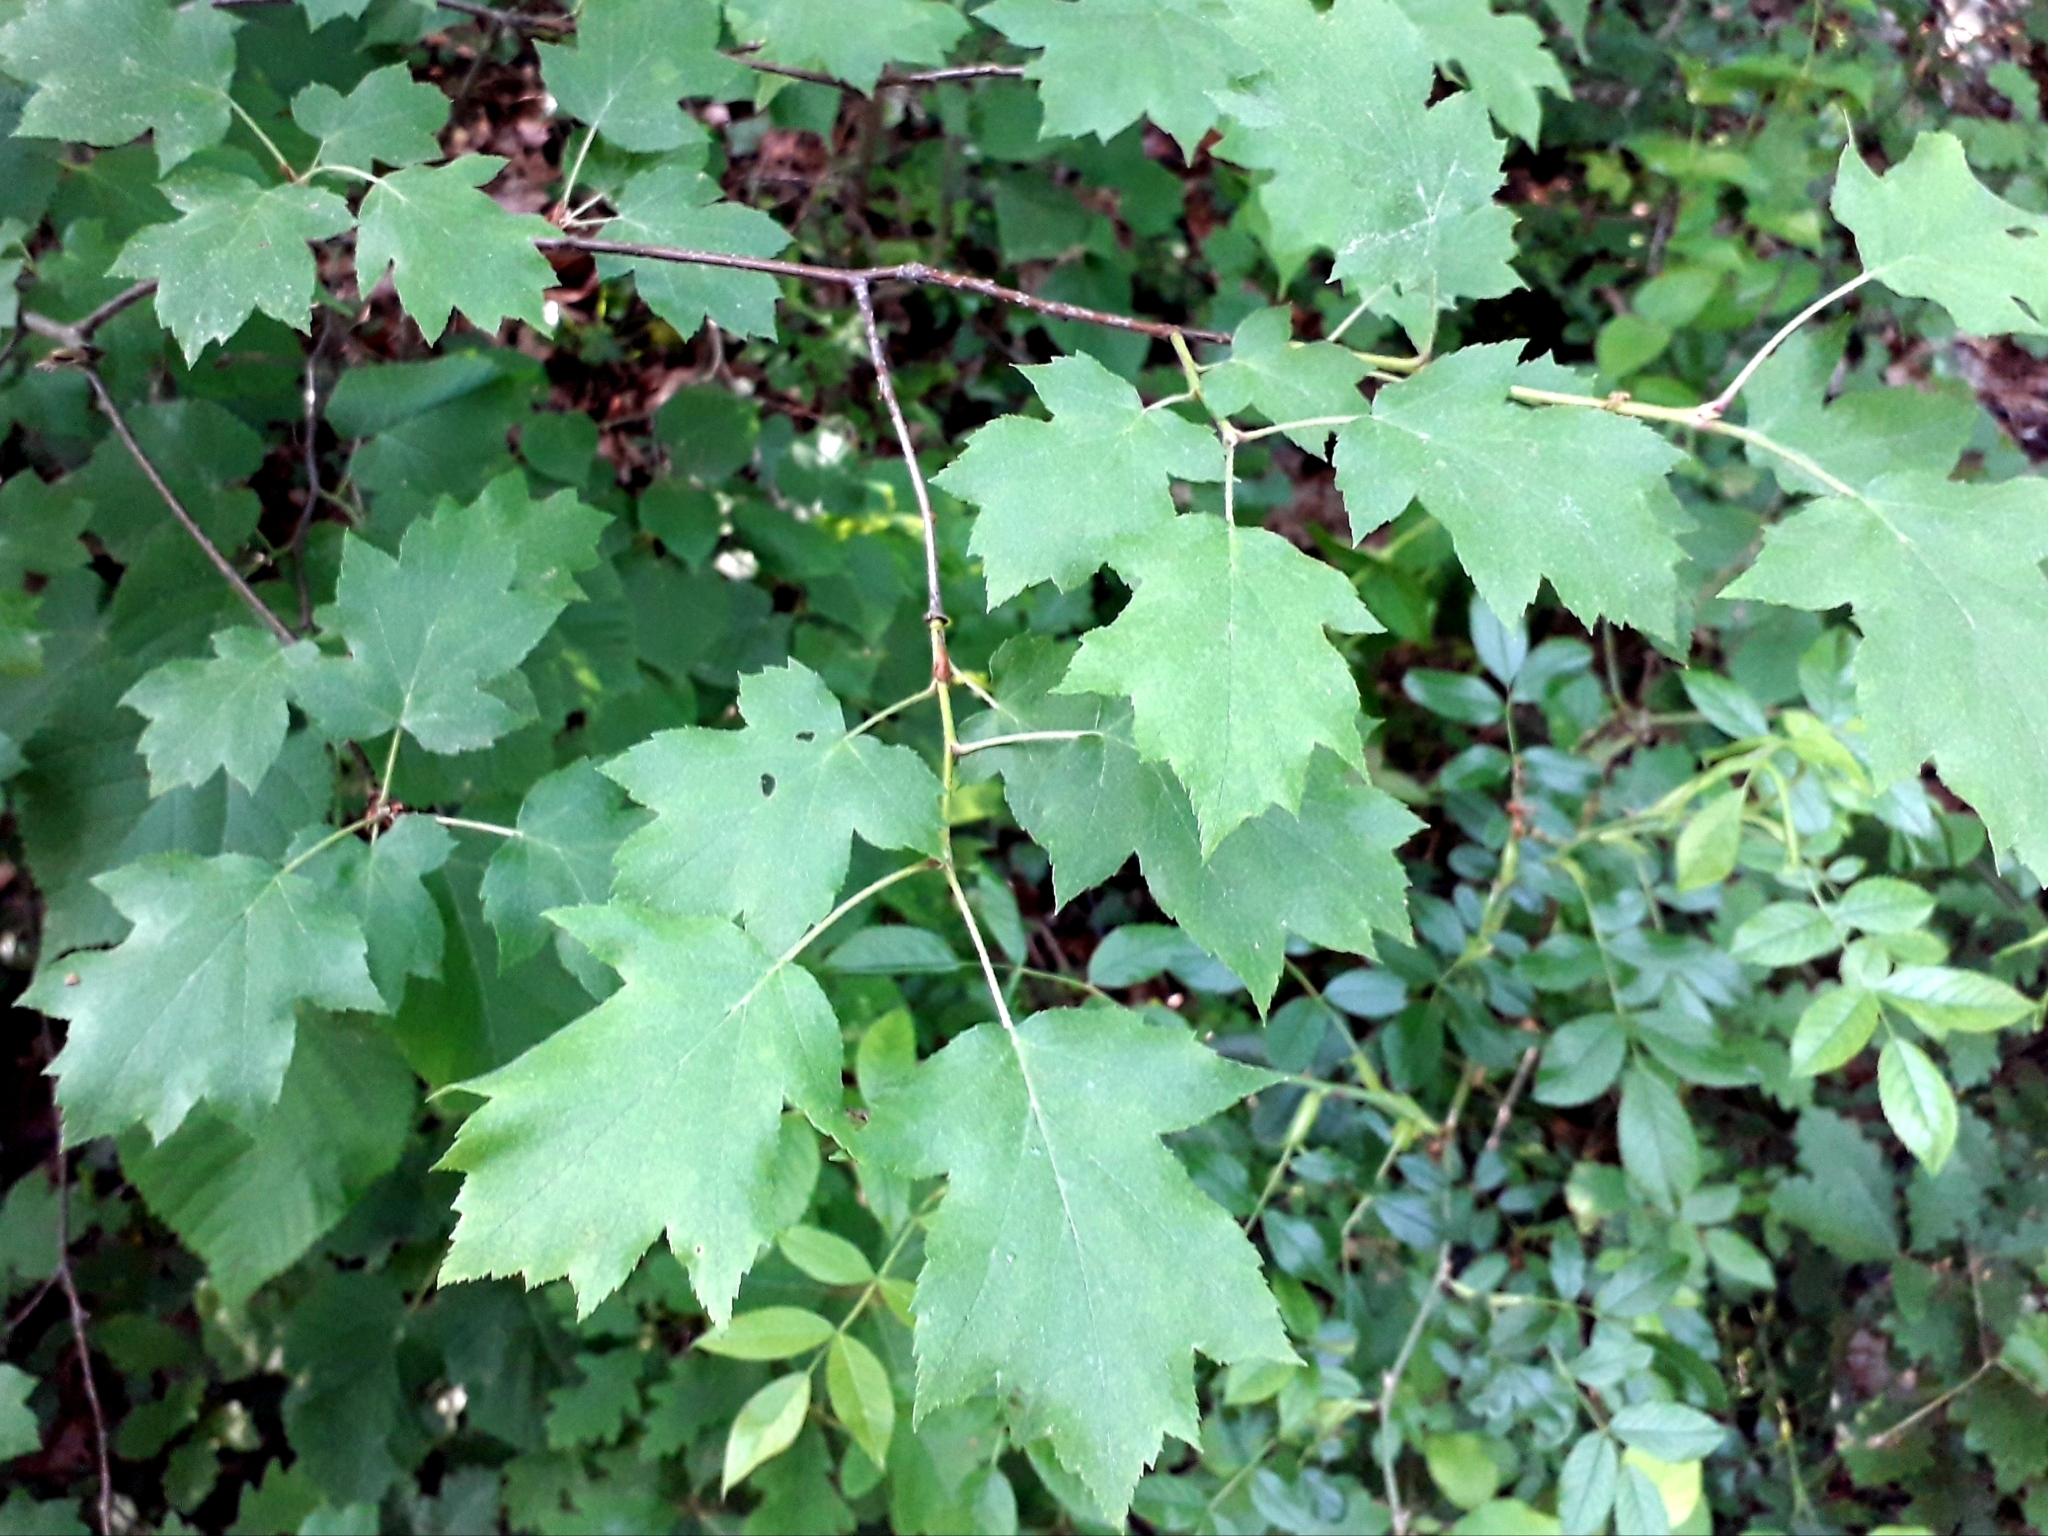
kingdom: Plantae
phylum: Tracheophyta
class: Magnoliopsida
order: Rosales
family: Rosaceae
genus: Torminalis
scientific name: Torminalis glaberrima
